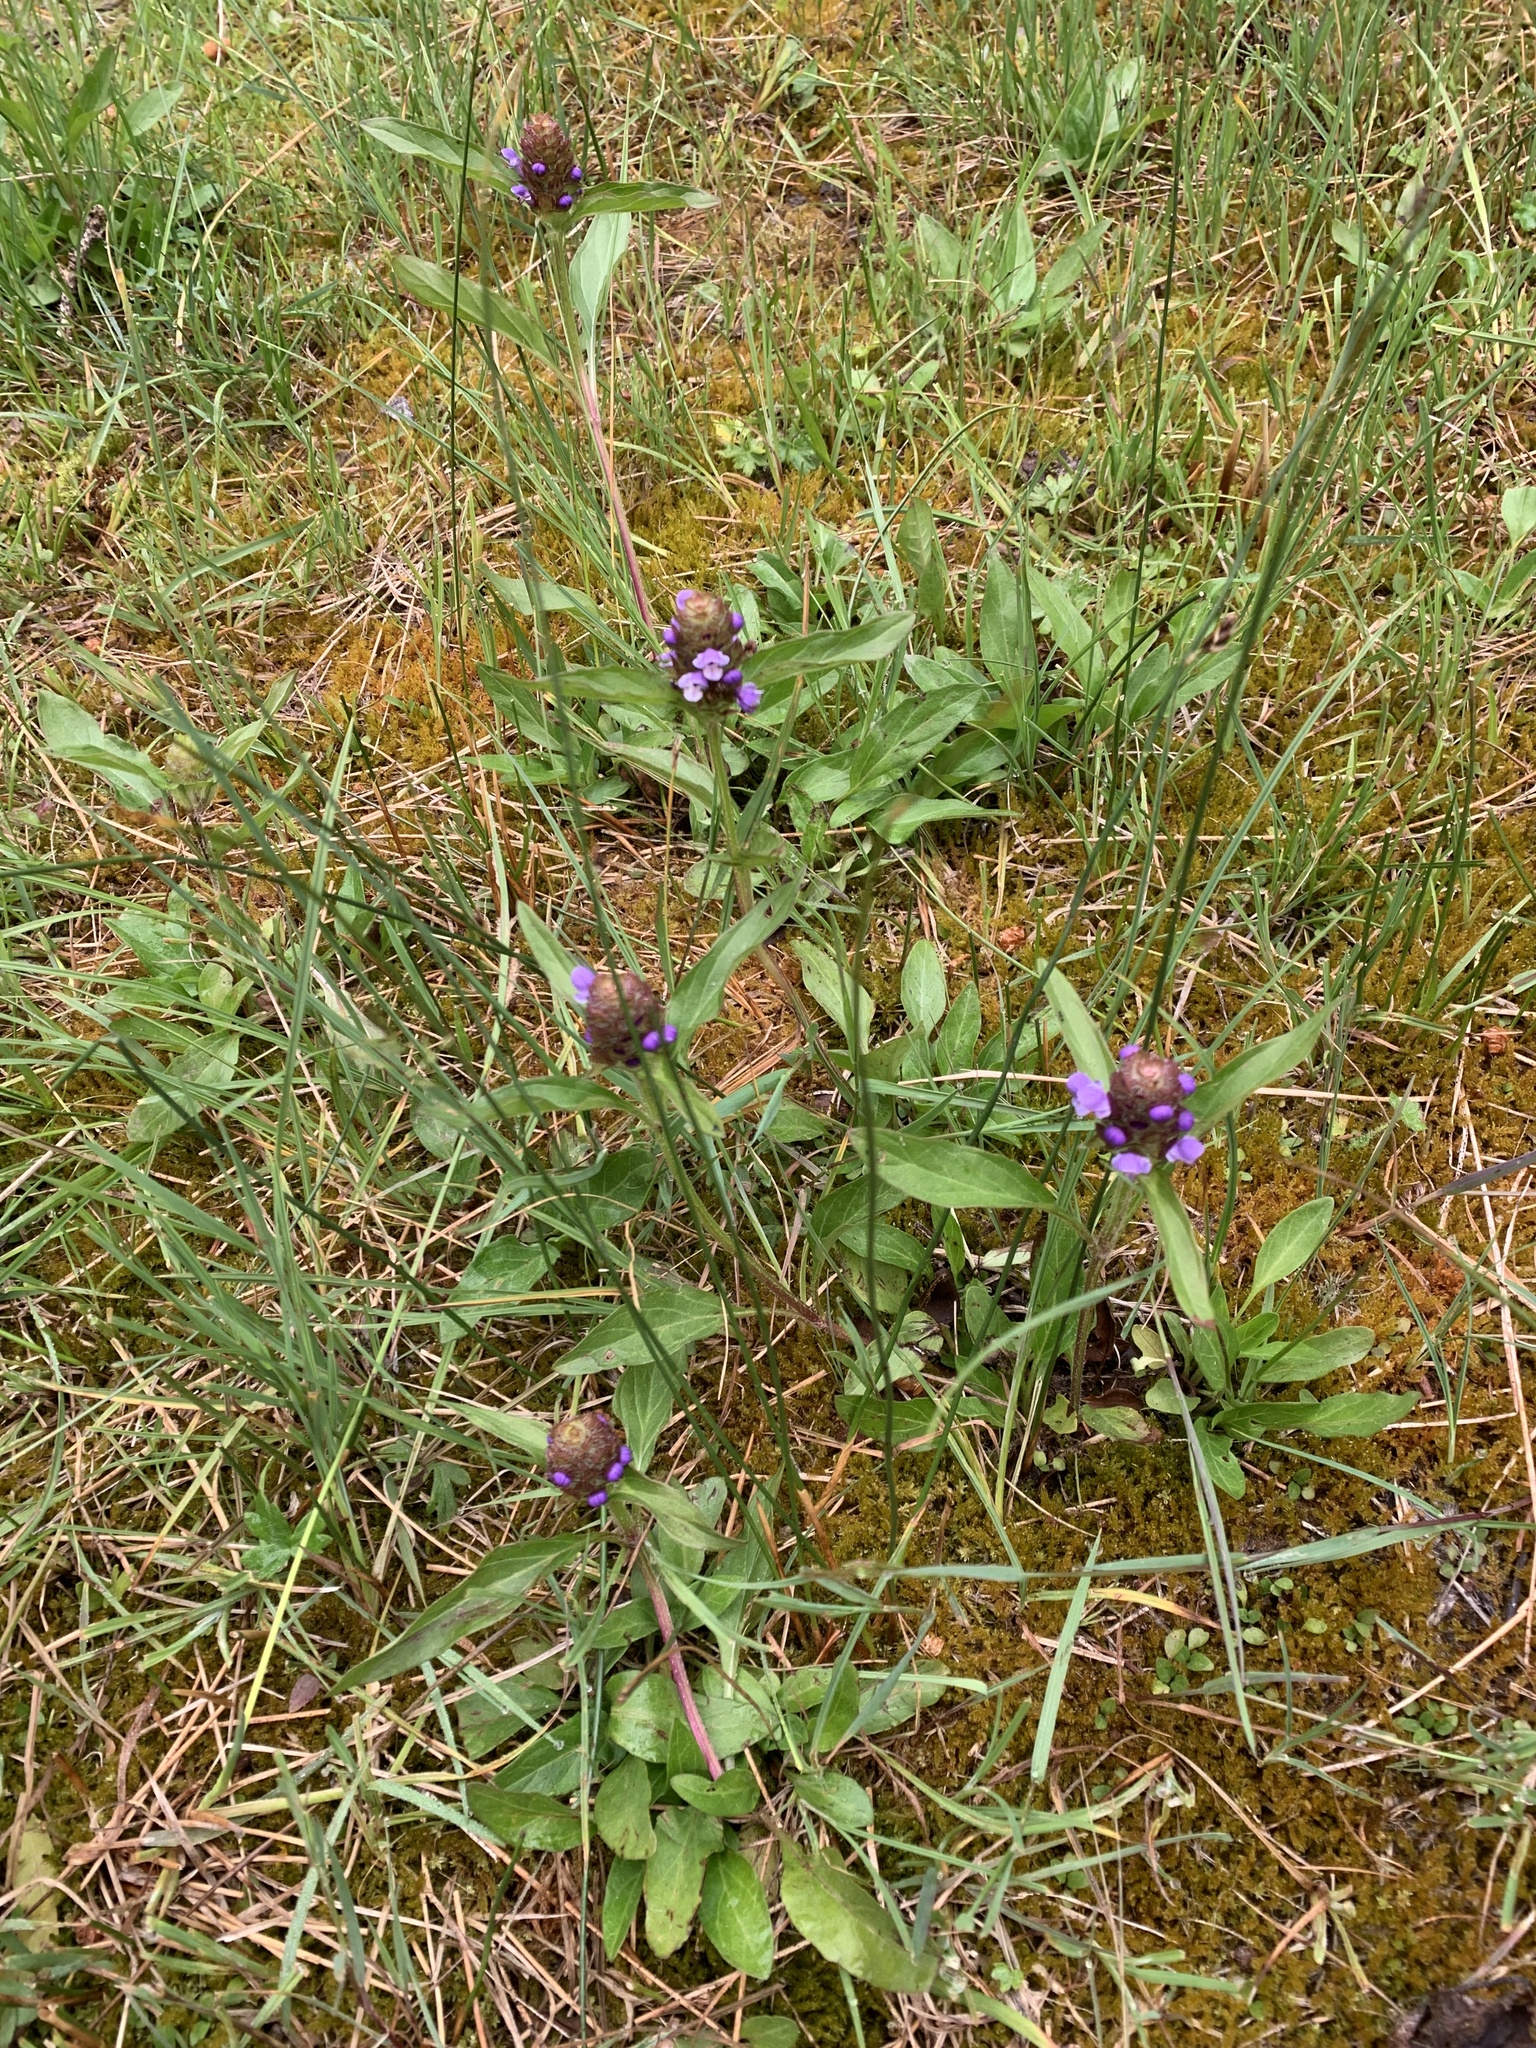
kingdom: Plantae
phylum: Tracheophyta
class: Magnoliopsida
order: Lamiales
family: Lamiaceae
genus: Prunella
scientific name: Prunella vulgaris
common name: Heal-all
